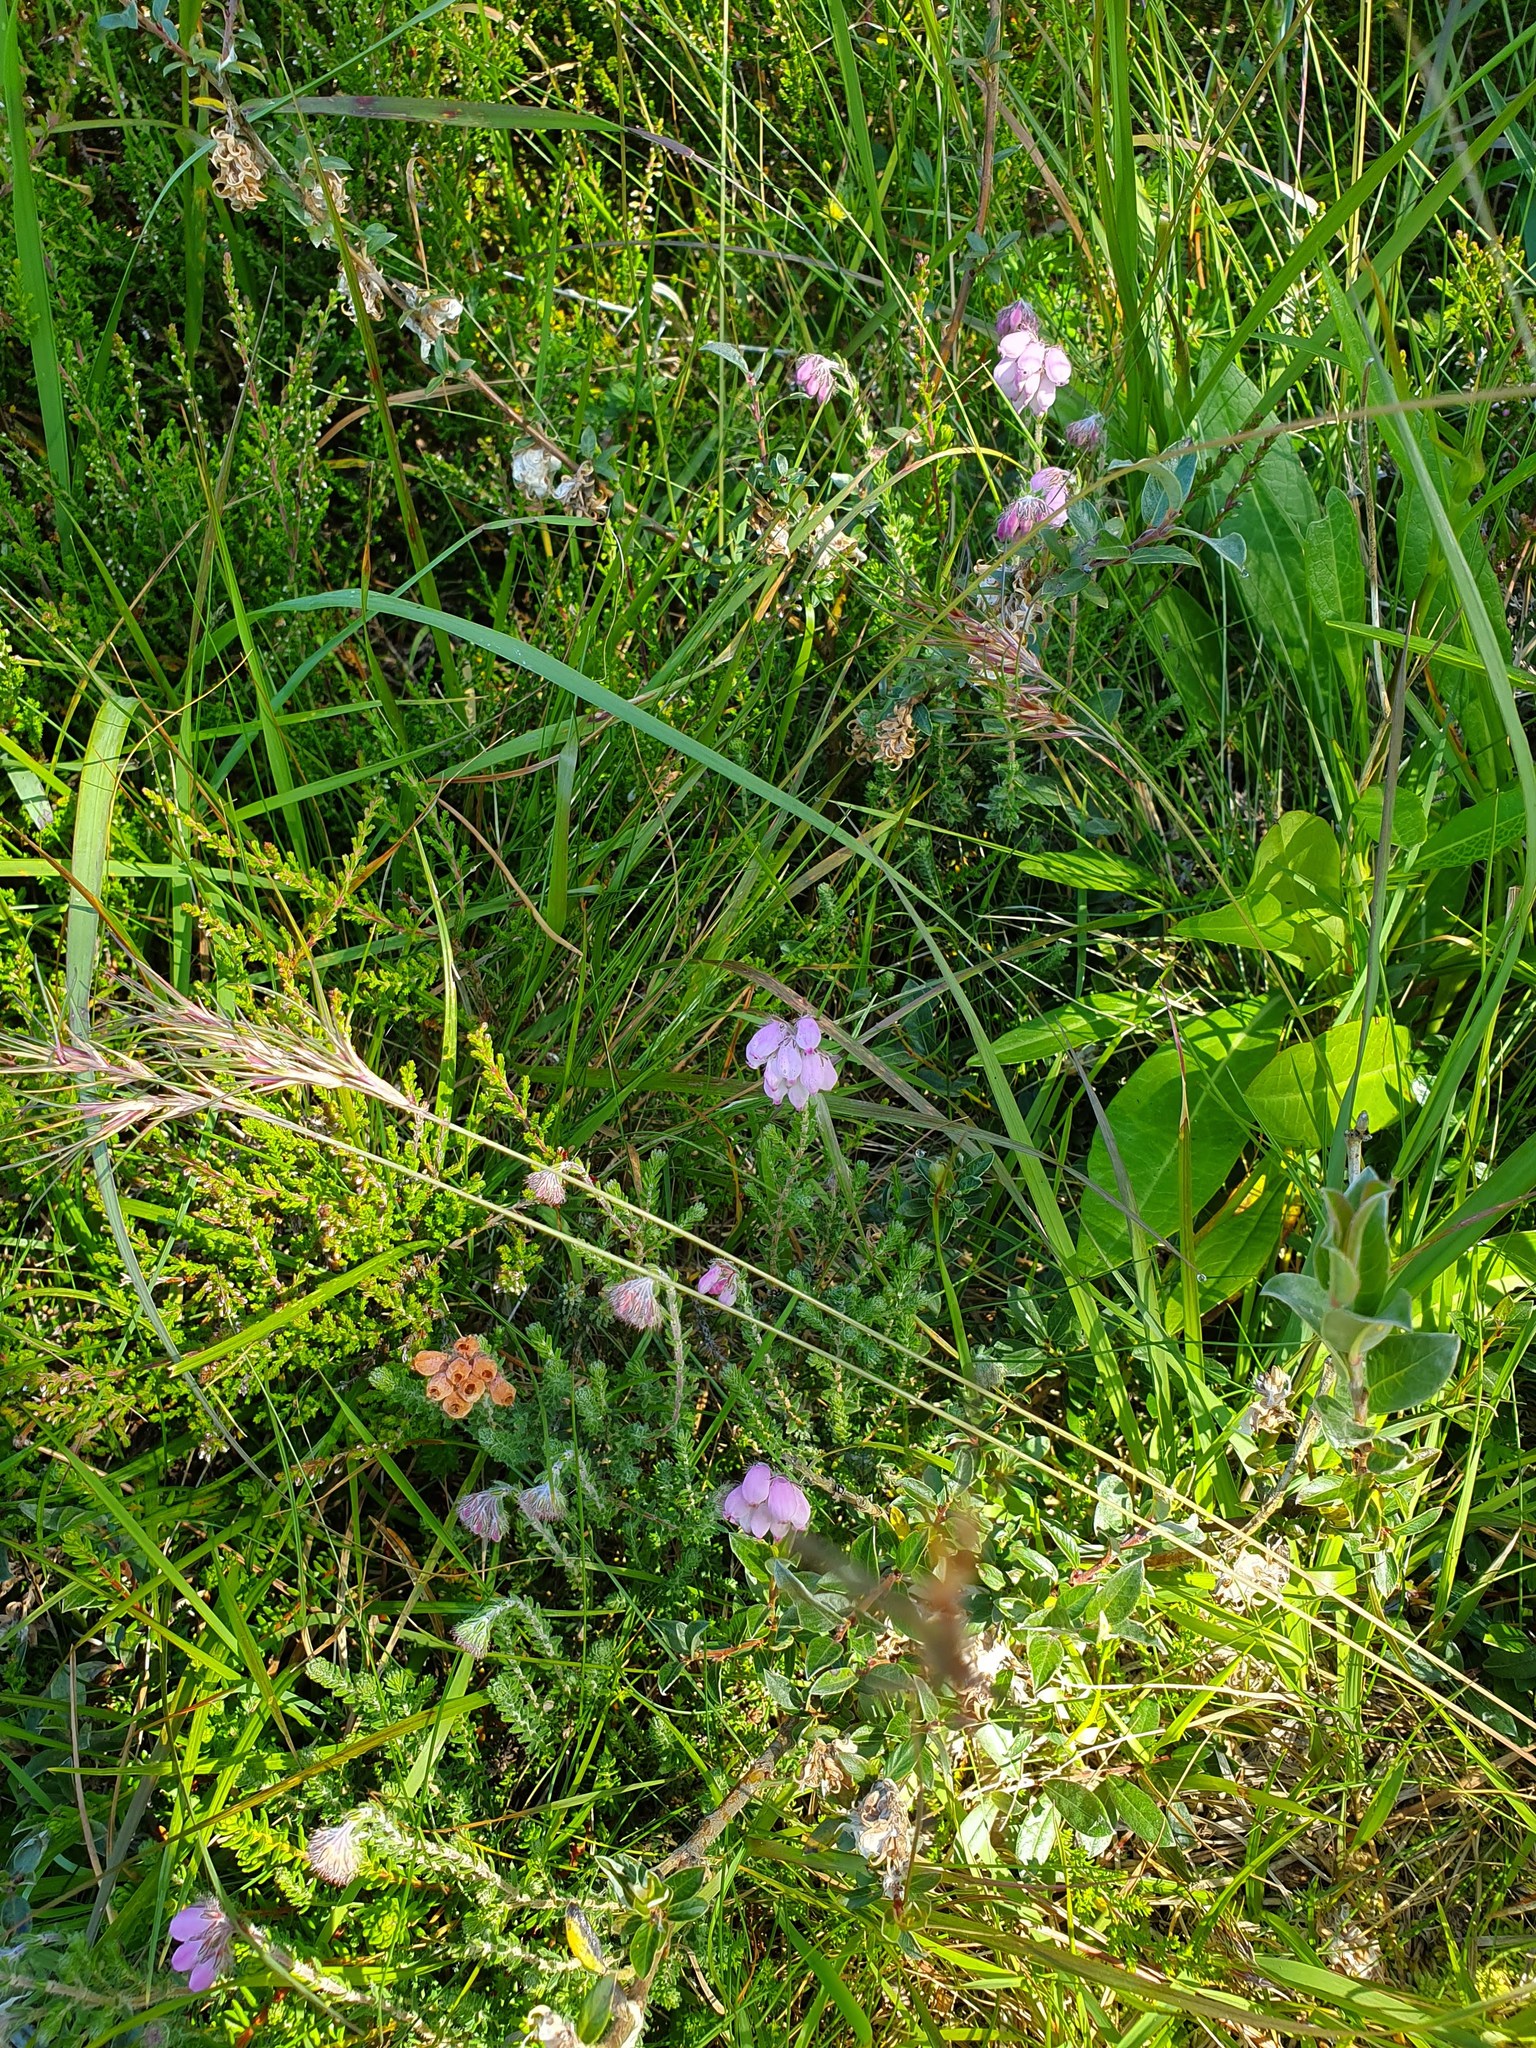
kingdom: Plantae
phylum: Tracheophyta
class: Magnoliopsida
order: Ericales
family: Ericaceae
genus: Erica
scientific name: Erica tetralix
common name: Cross-leaved heath
